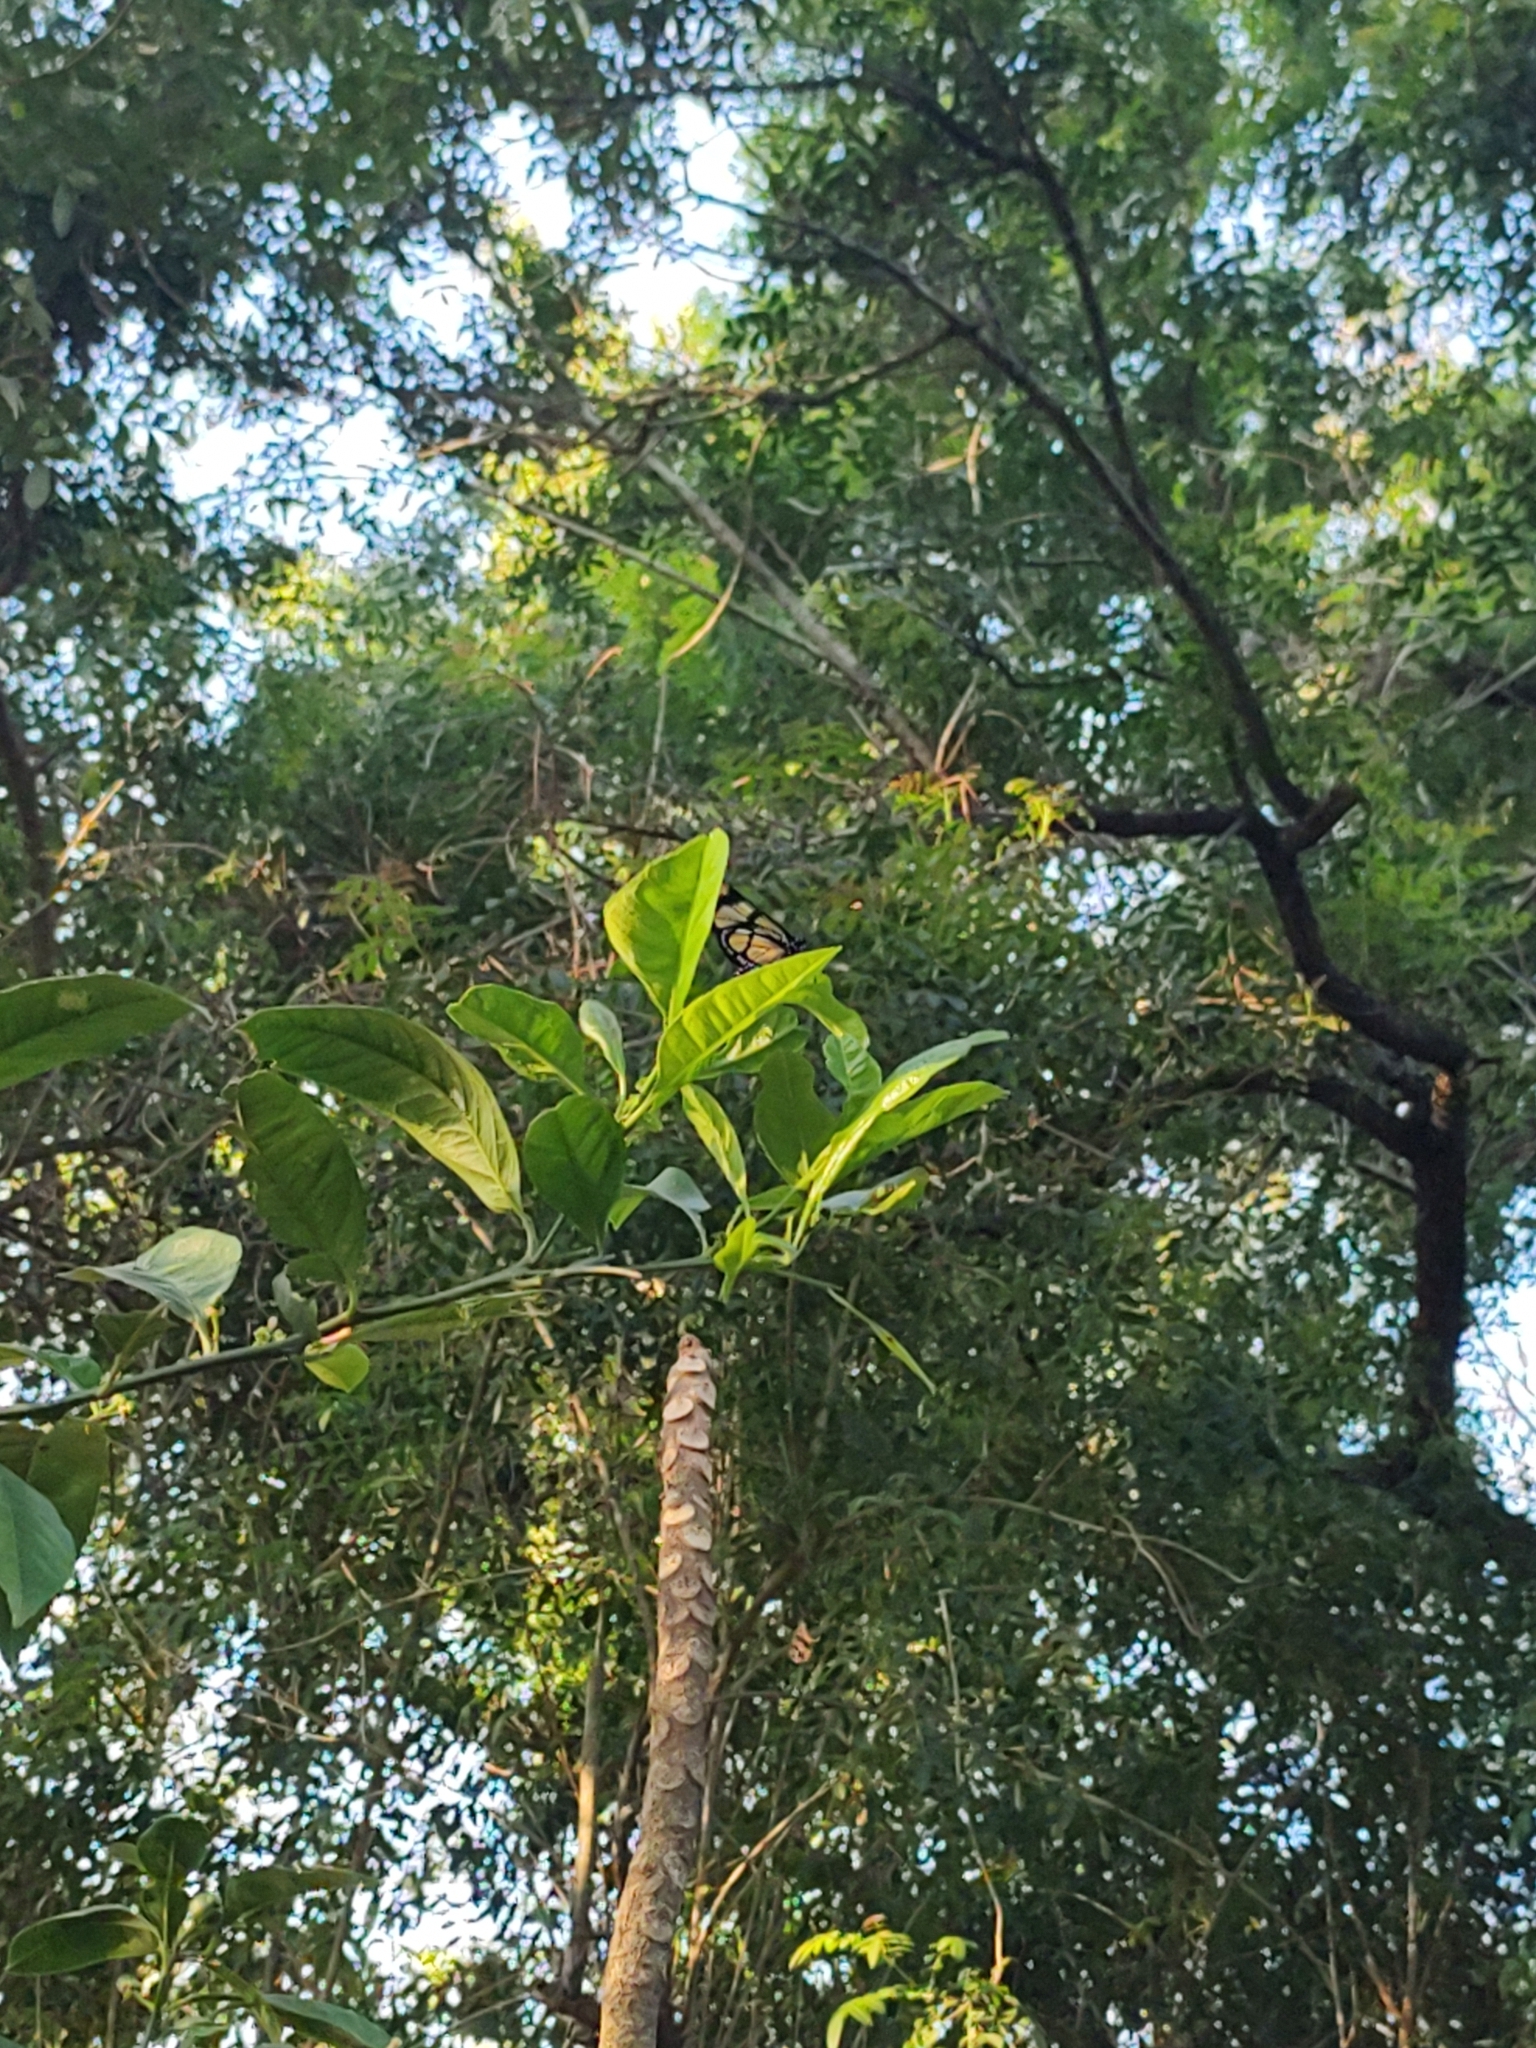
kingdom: Animalia
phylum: Arthropoda
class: Insecta
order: Lepidoptera
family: Nymphalidae
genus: Methona
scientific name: Methona themisto
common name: Themisto amberwing
